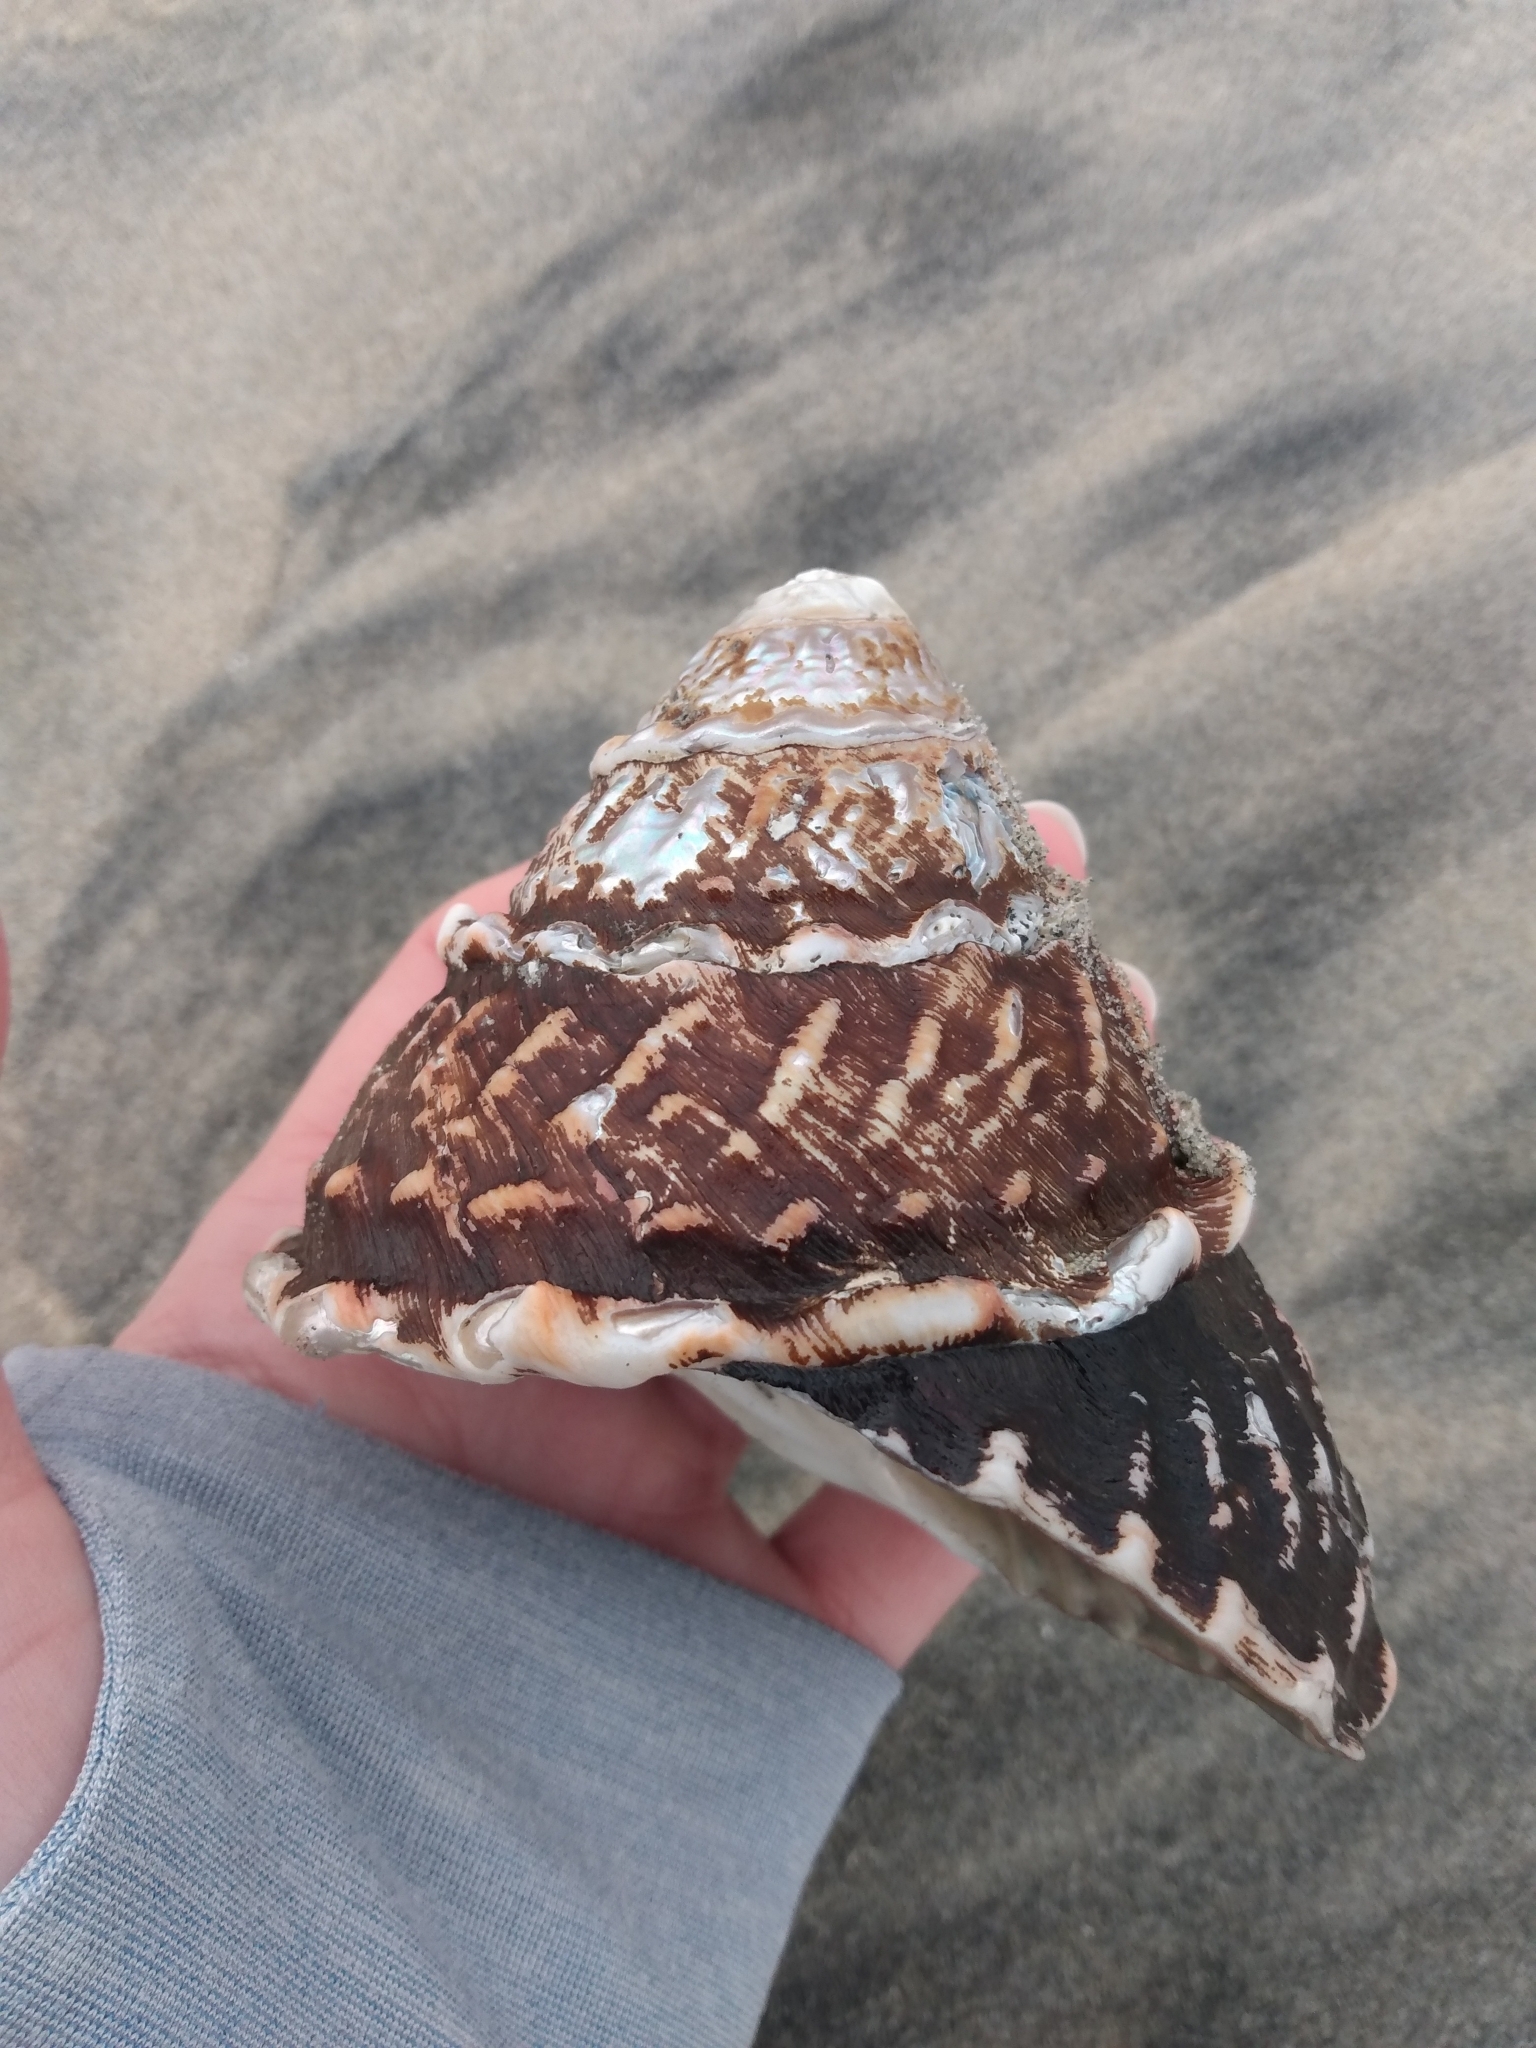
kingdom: Animalia
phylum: Mollusca
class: Gastropoda
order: Trochida
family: Turbinidae
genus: Megastraea
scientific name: Megastraea undosa
